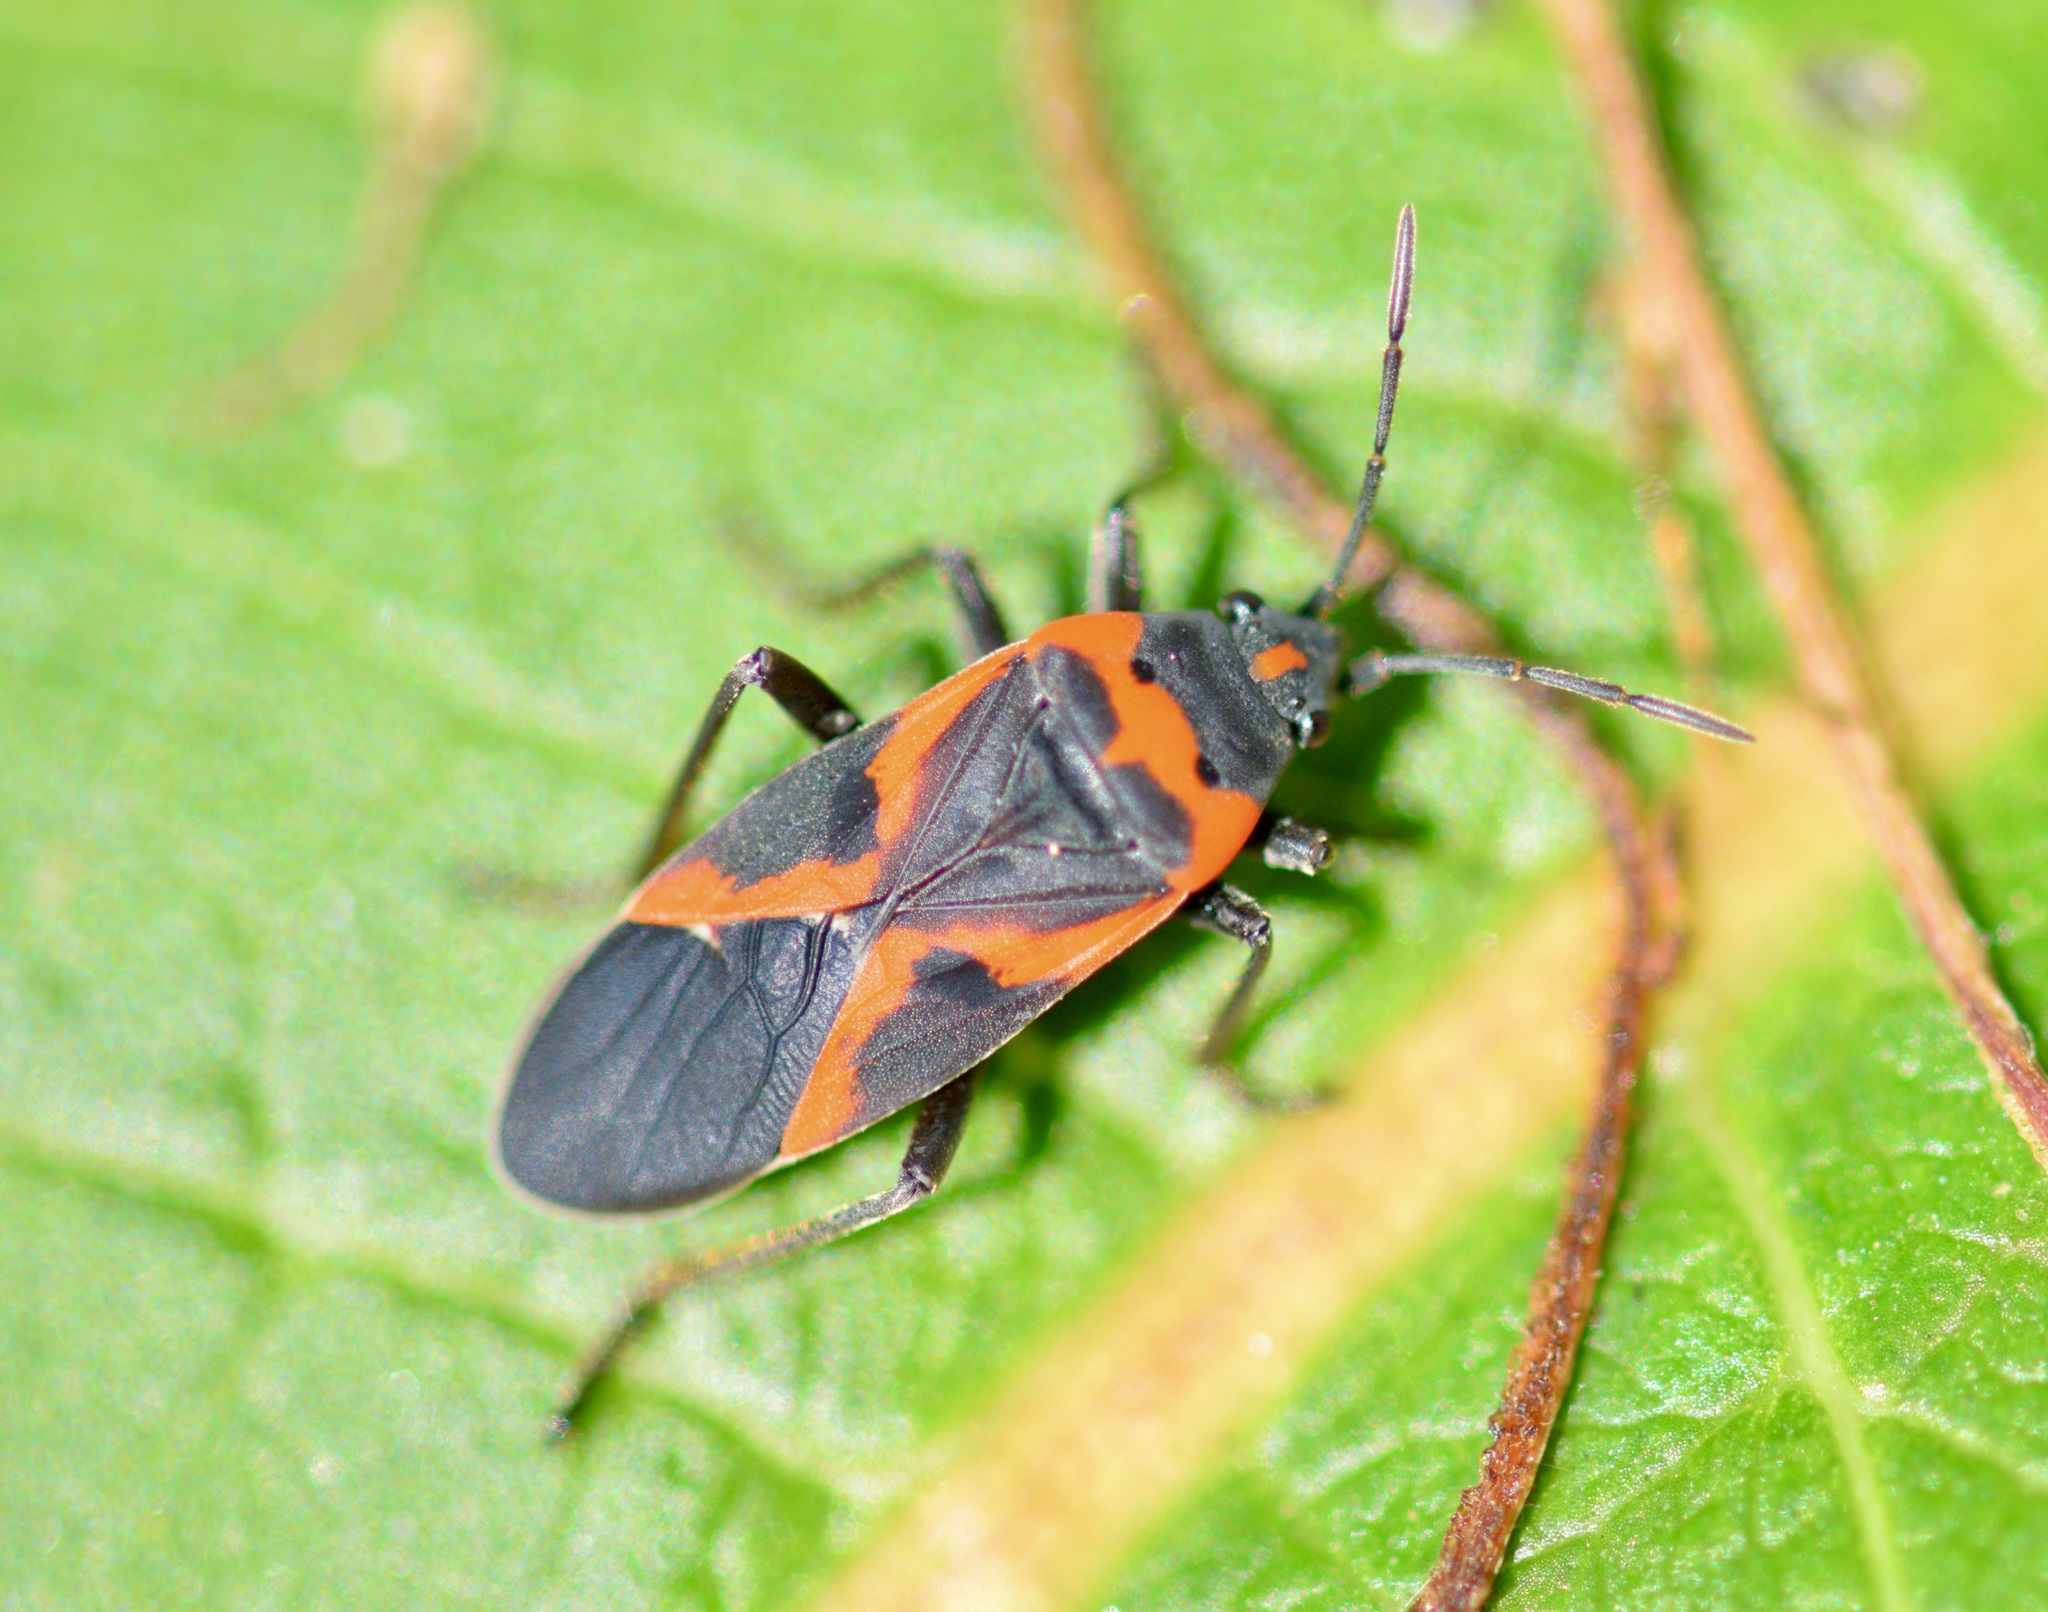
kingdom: Animalia
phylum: Arthropoda
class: Insecta
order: Hemiptera
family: Lygaeidae
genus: Lygaeus
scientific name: Lygaeus kalmii
